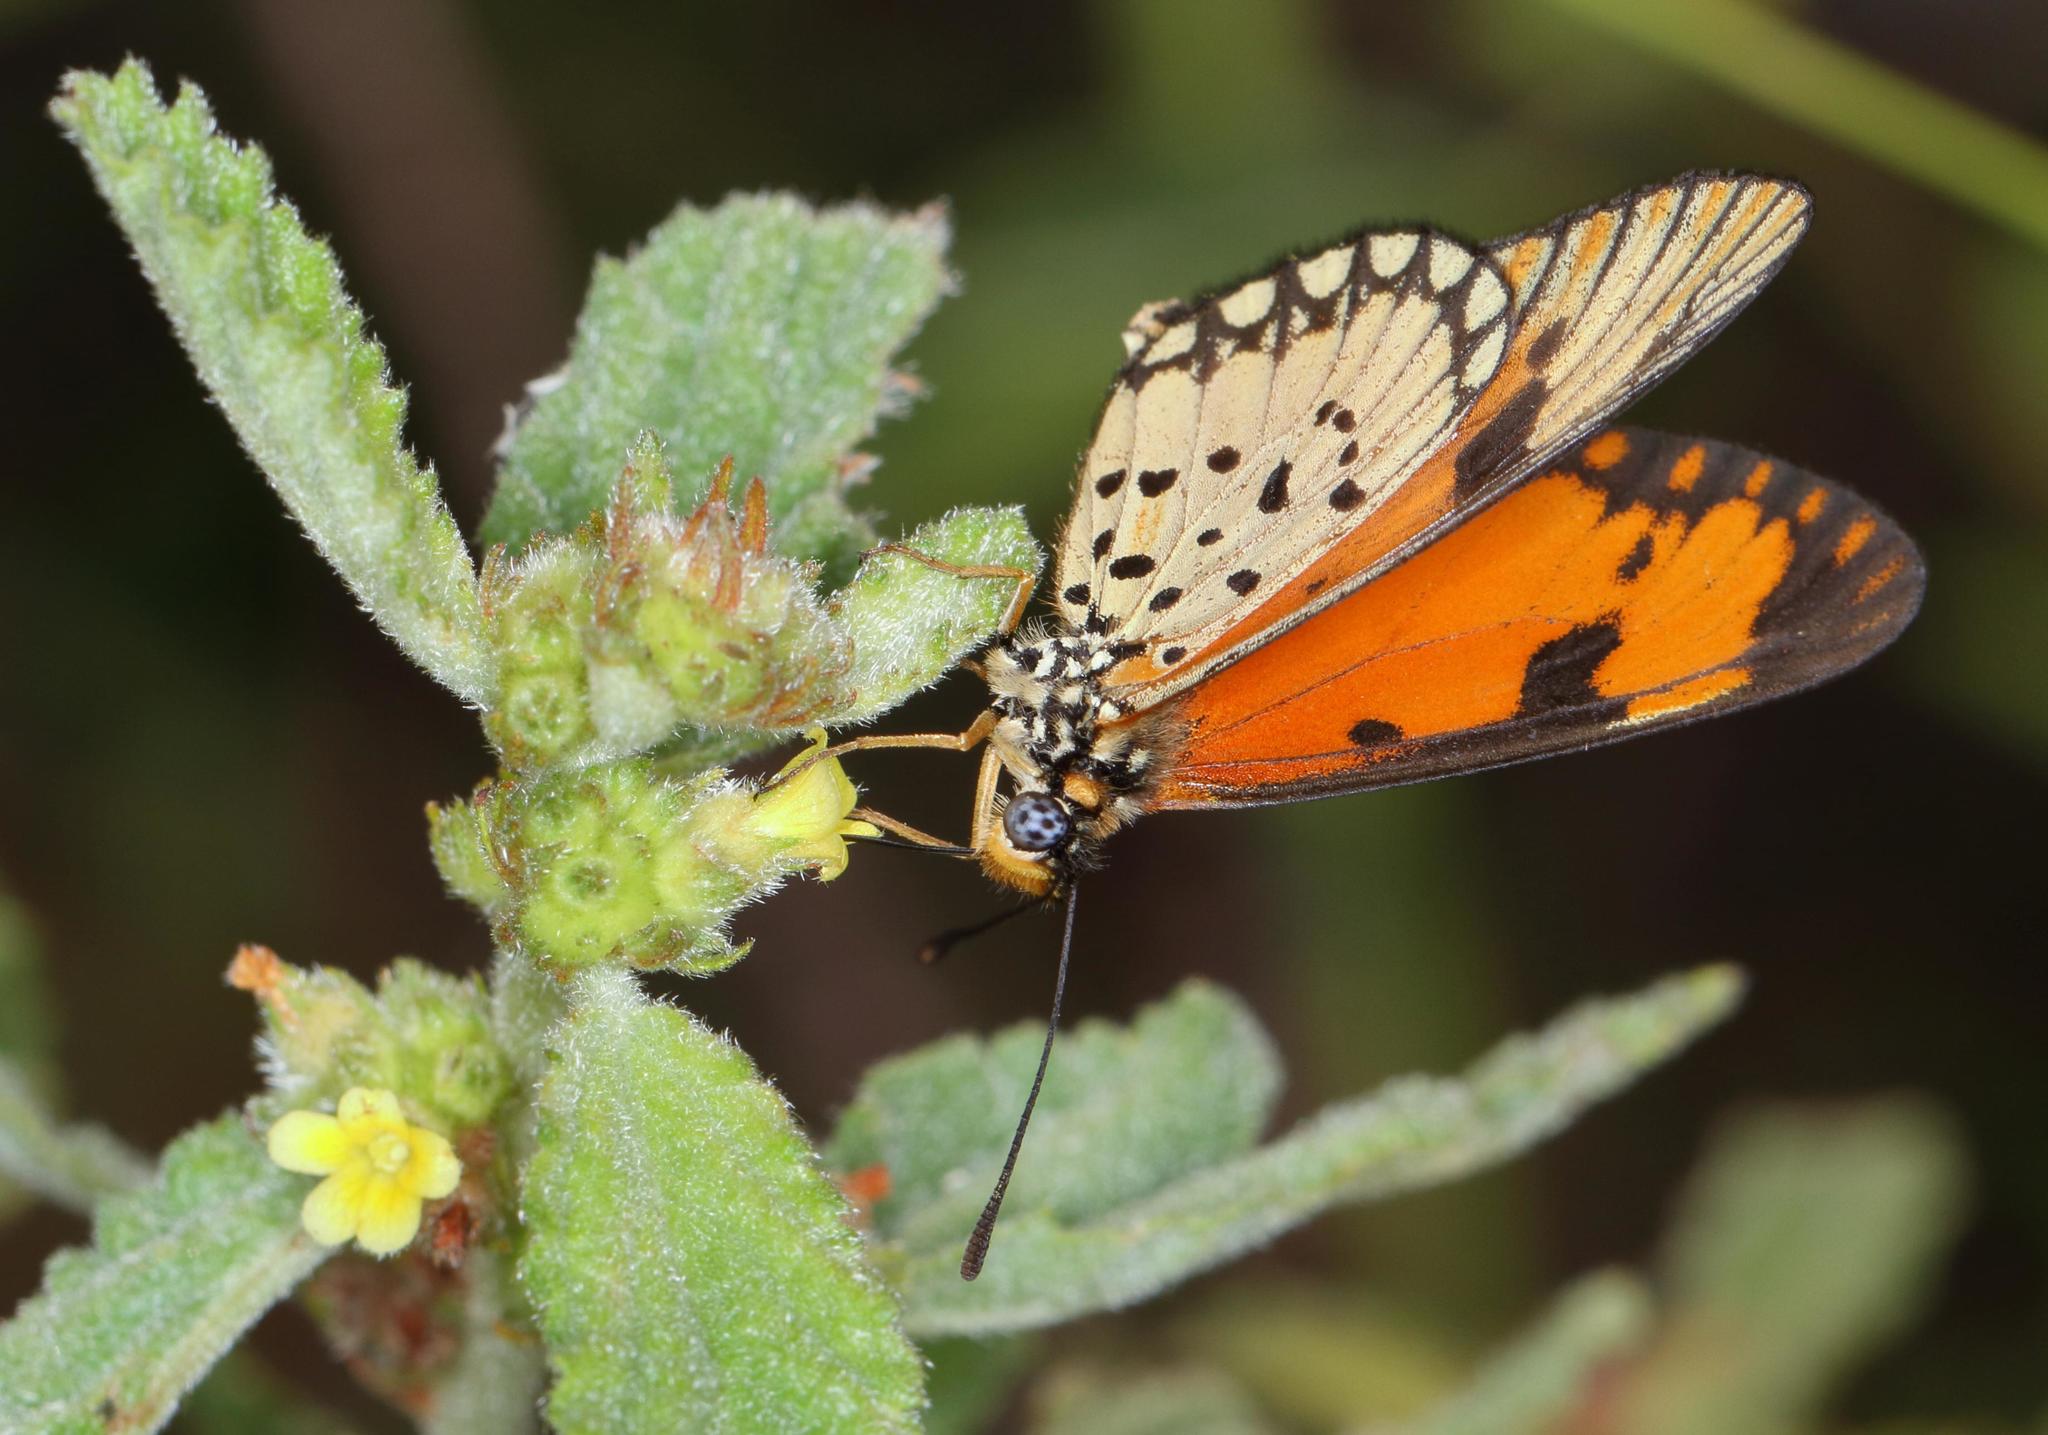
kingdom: Animalia
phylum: Arthropoda
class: Insecta
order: Lepidoptera
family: Nymphalidae
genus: Acraea
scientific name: Acraea Telchinia serena
